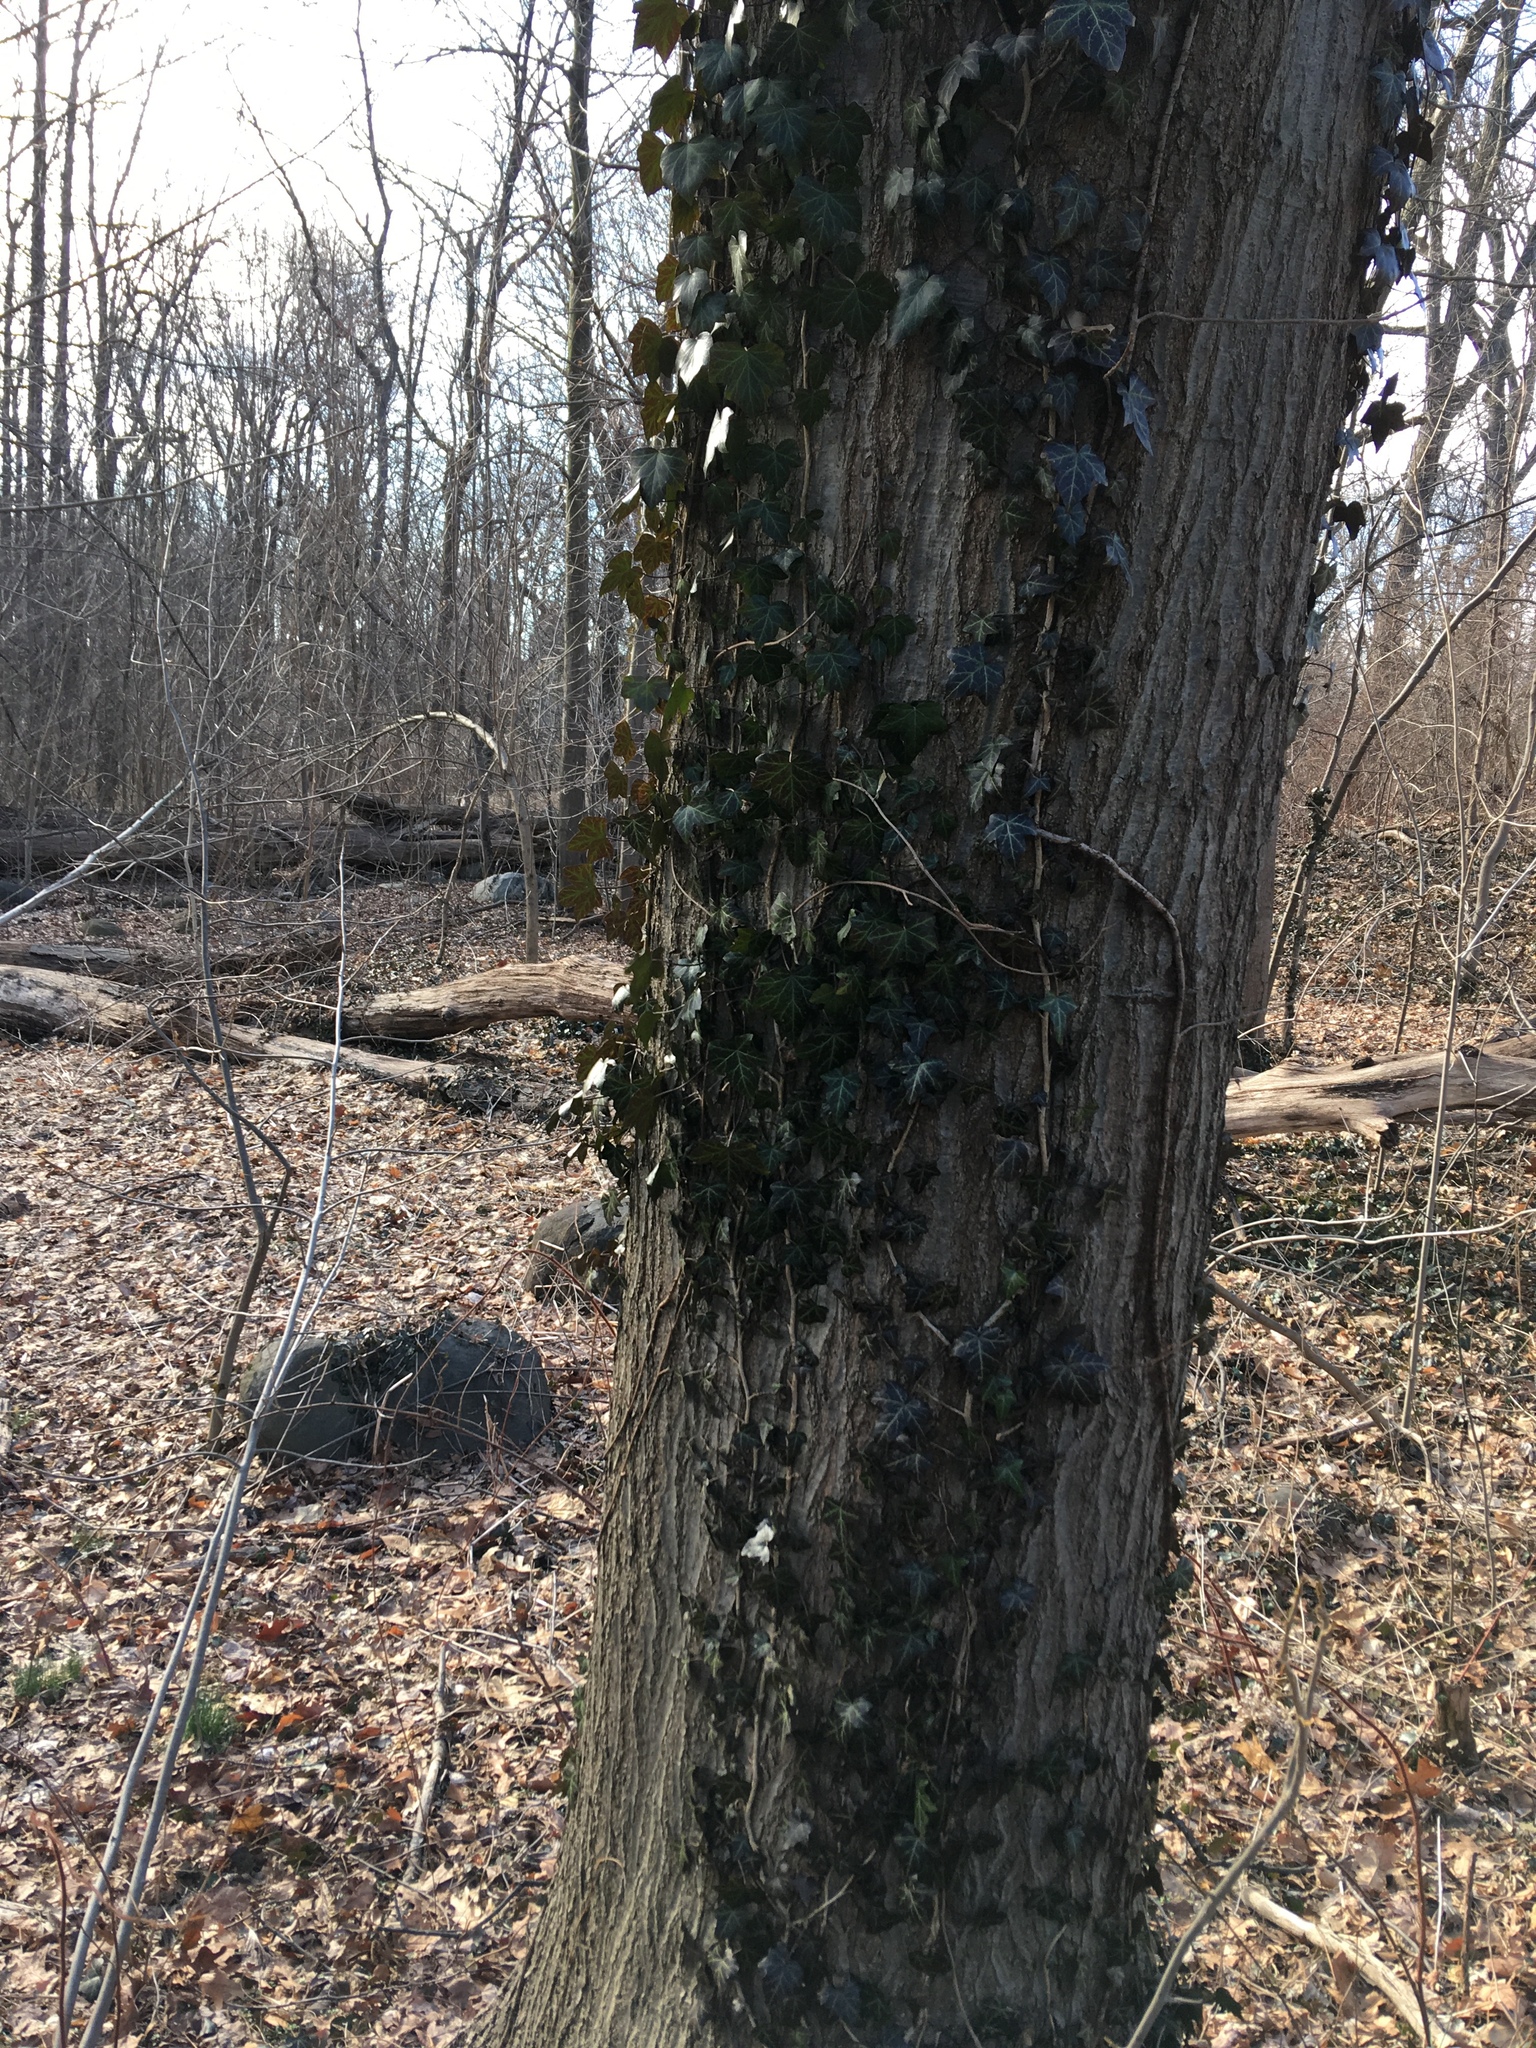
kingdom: Plantae
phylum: Tracheophyta
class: Magnoliopsida
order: Apiales
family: Araliaceae
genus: Hedera
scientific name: Hedera helix
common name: Ivy
